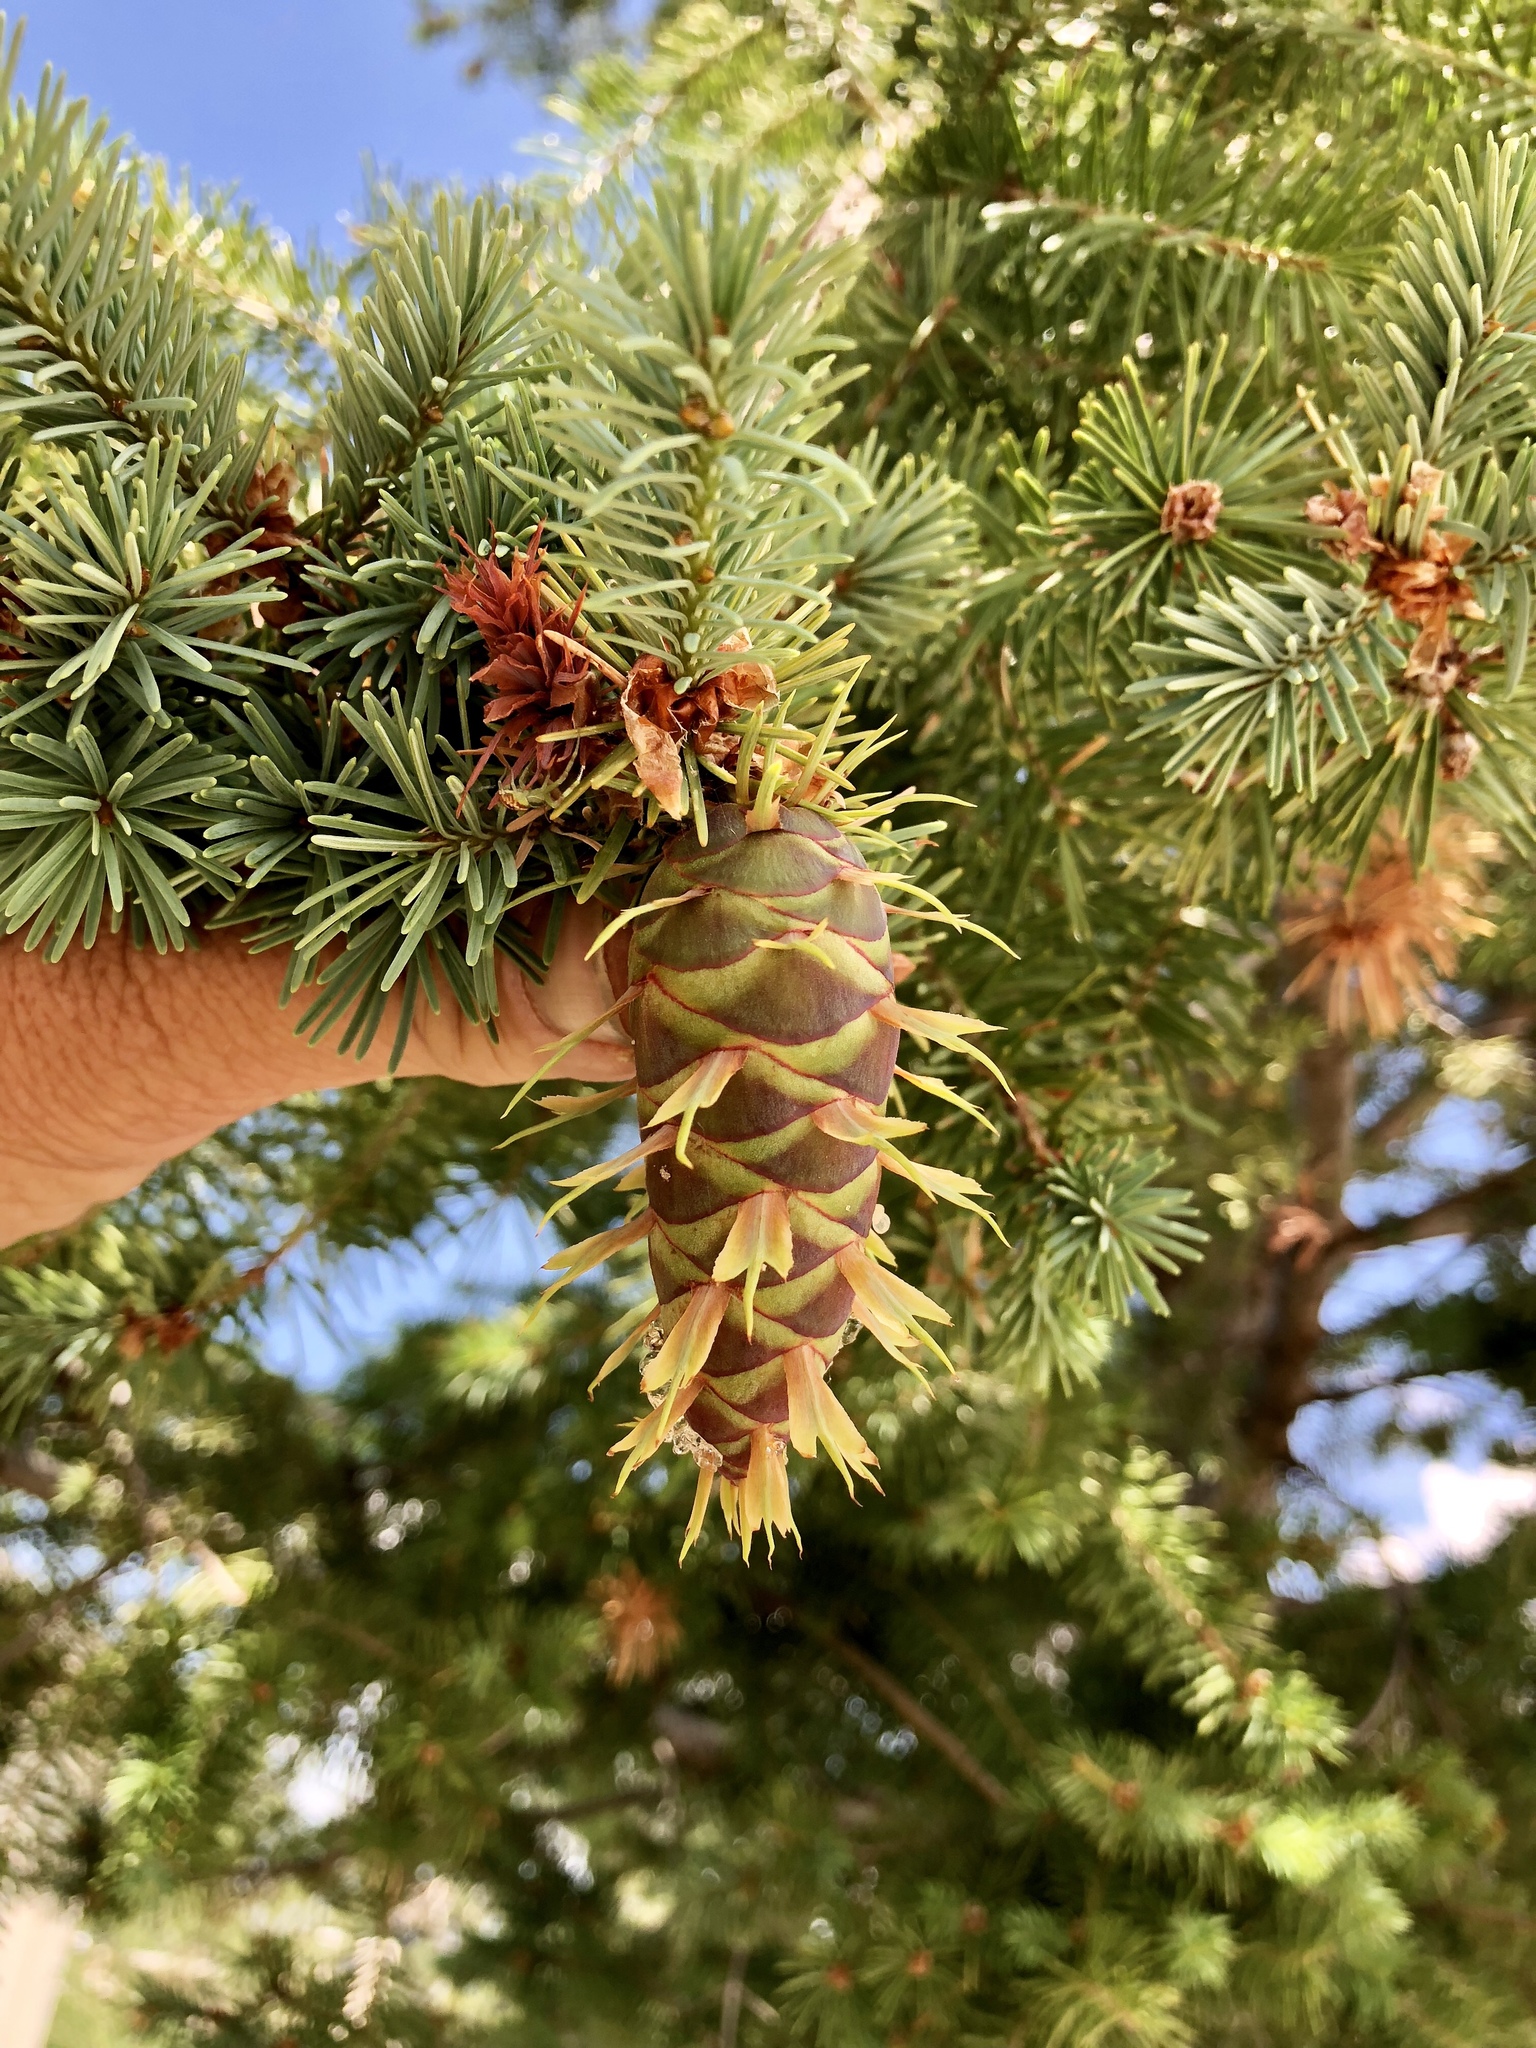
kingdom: Plantae
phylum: Tracheophyta
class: Pinopsida
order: Pinales
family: Pinaceae
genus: Pseudotsuga
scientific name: Pseudotsuga menziesii
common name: Douglas fir
